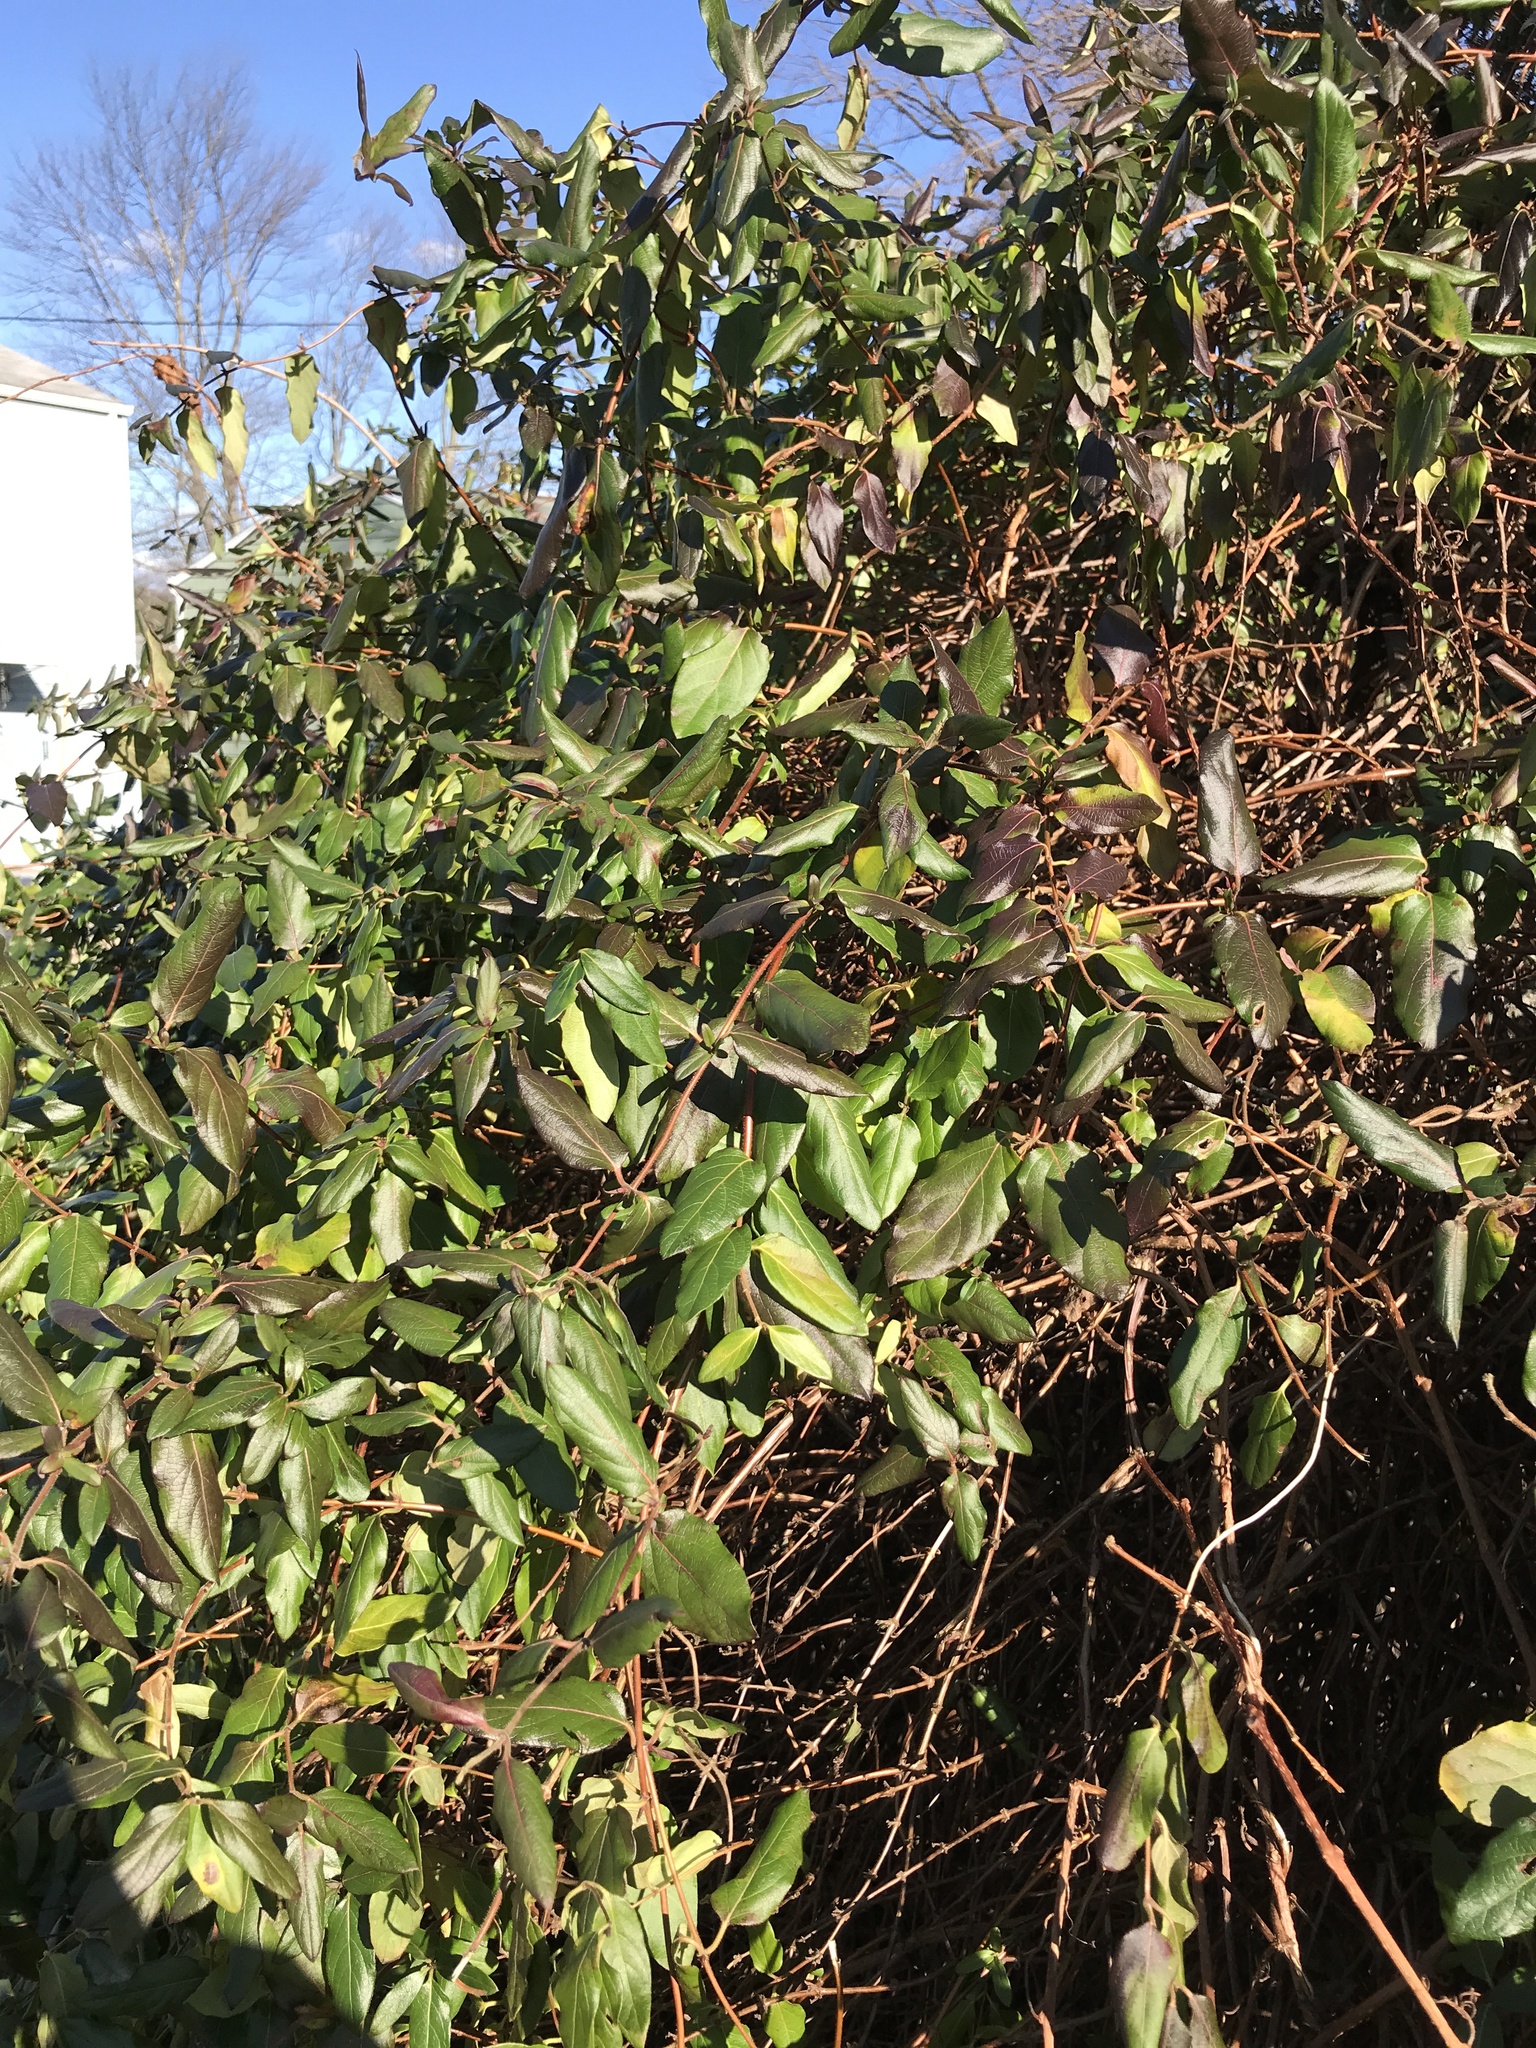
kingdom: Plantae
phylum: Tracheophyta
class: Magnoliopsida
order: Dipsacales
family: Caprifoliaceae
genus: Lonicera
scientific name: Lonicera japonica
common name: Japanese honeysuckle
